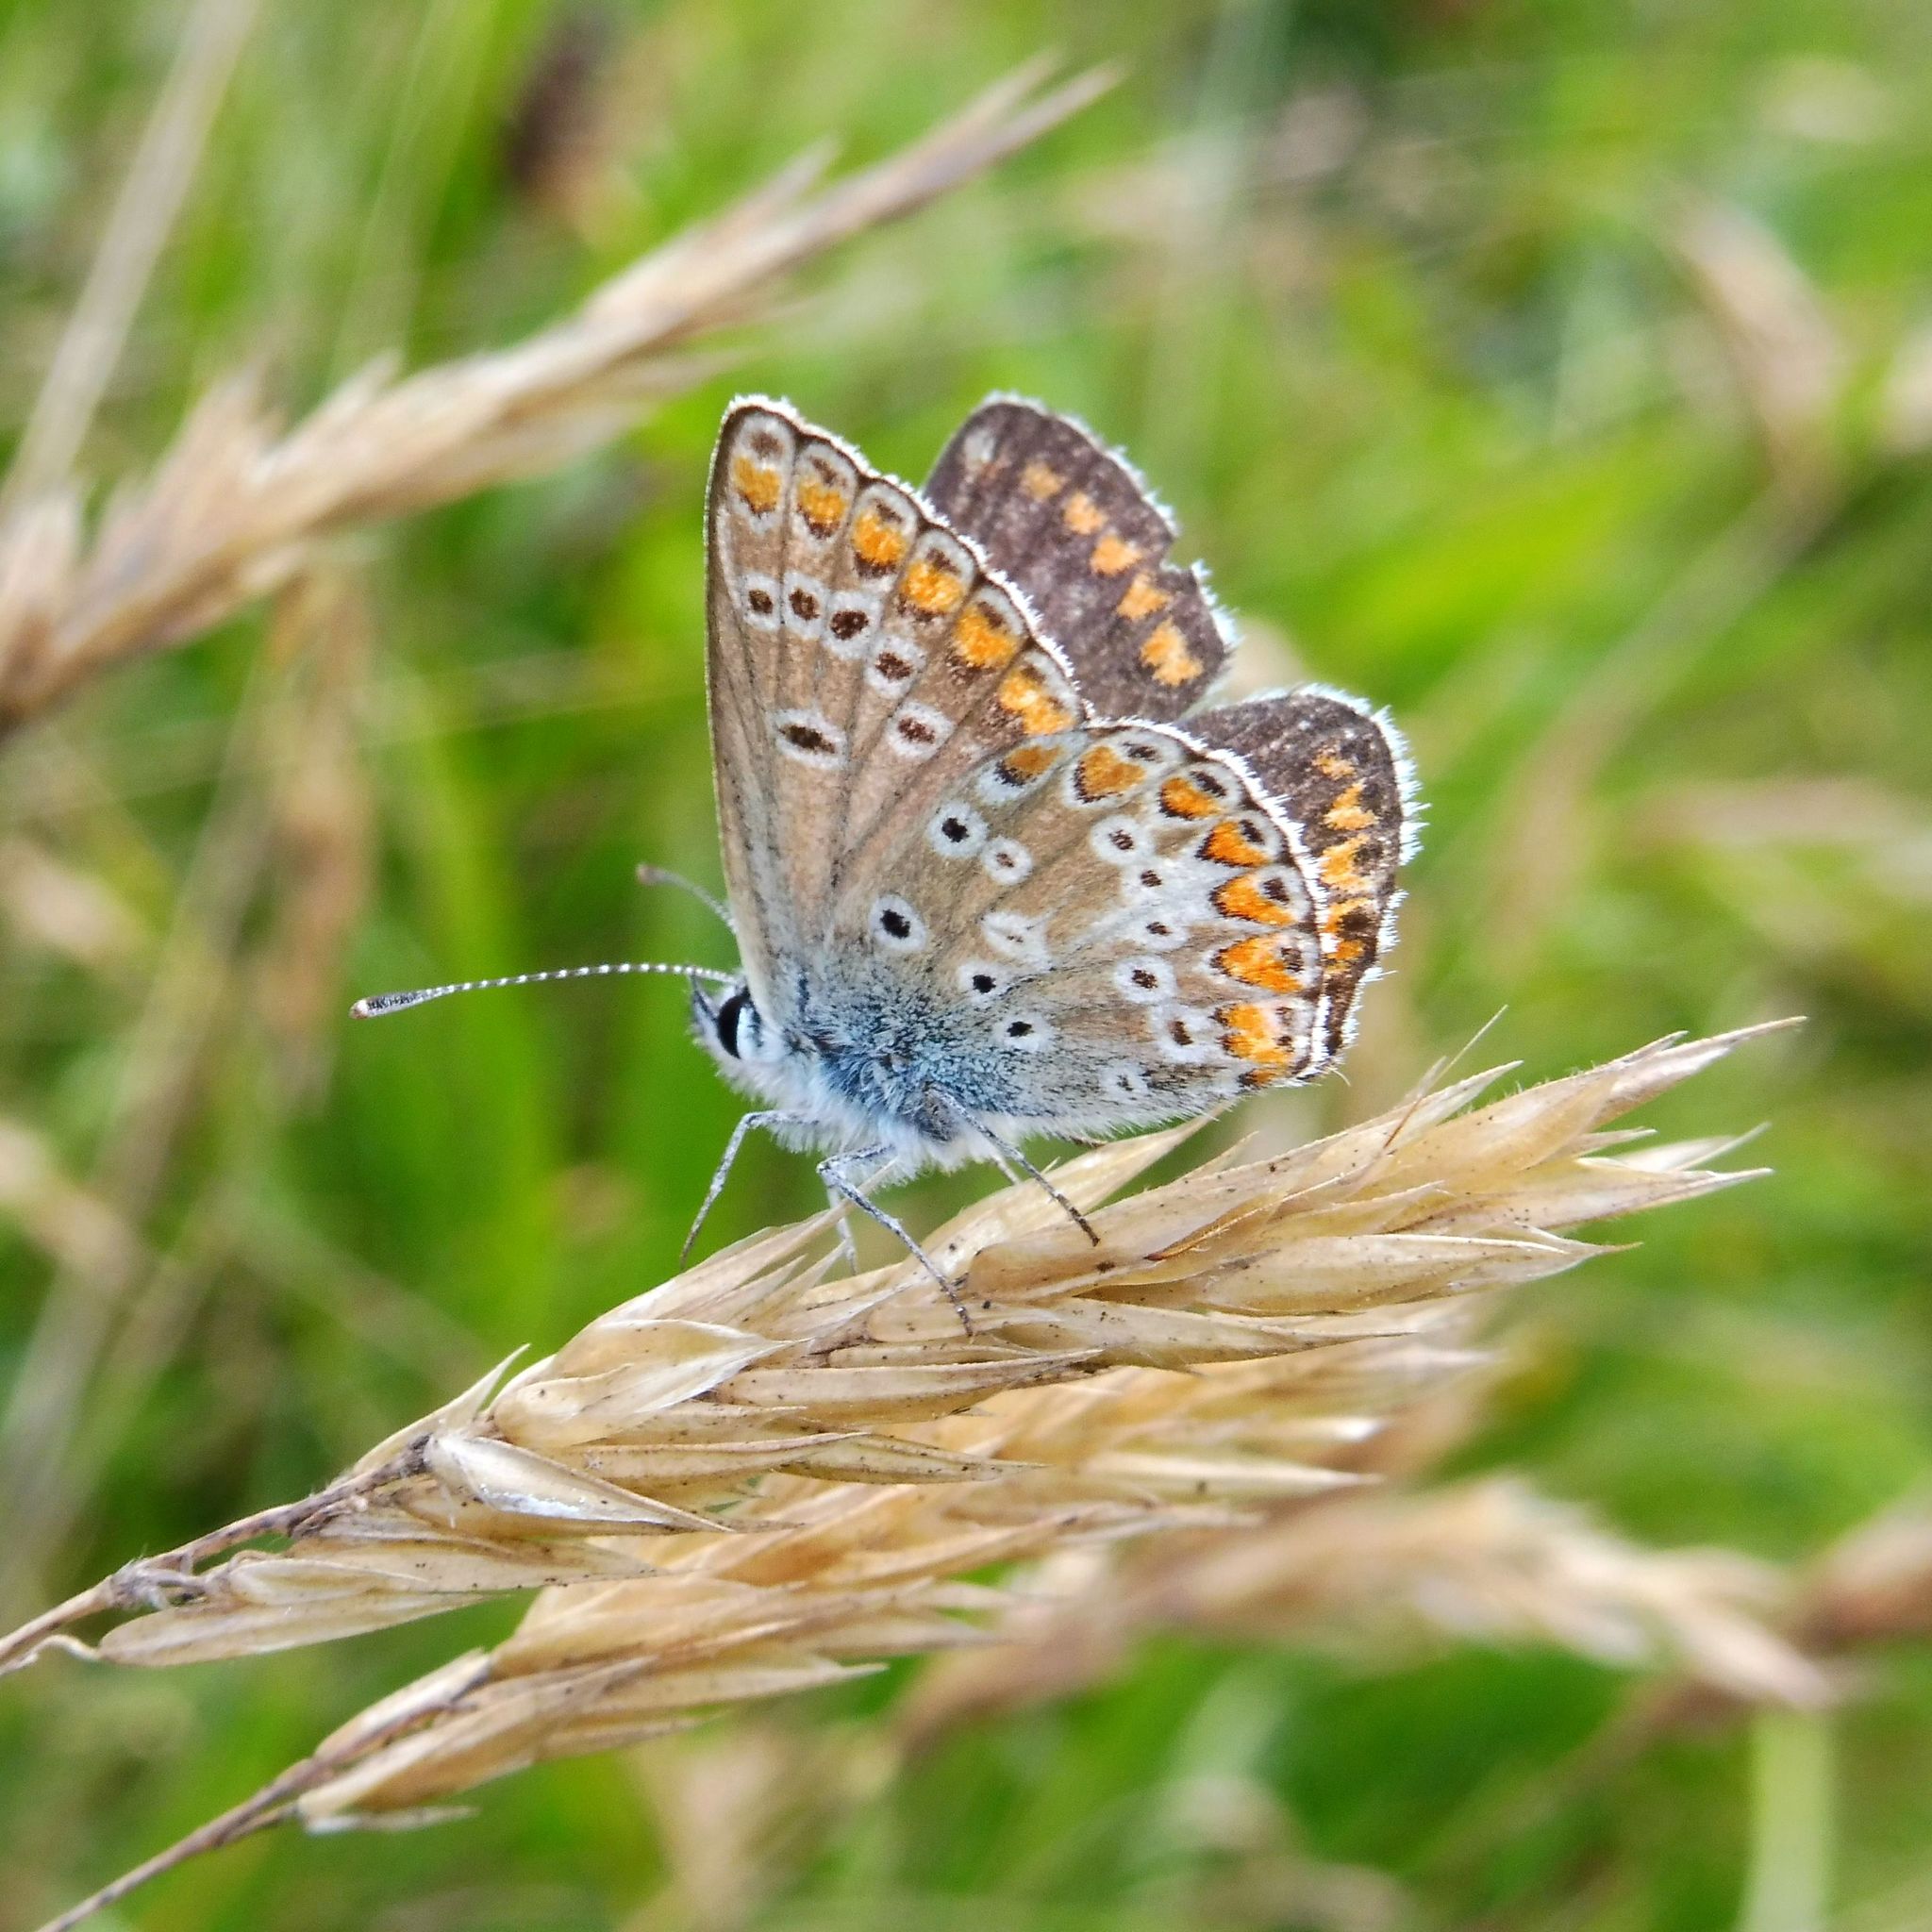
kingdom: Animalia
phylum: Arthropoda
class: Insecta
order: Lepidoptera
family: Lycaenidae
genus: Aricia
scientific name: Aricia agestis
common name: Brown argus
